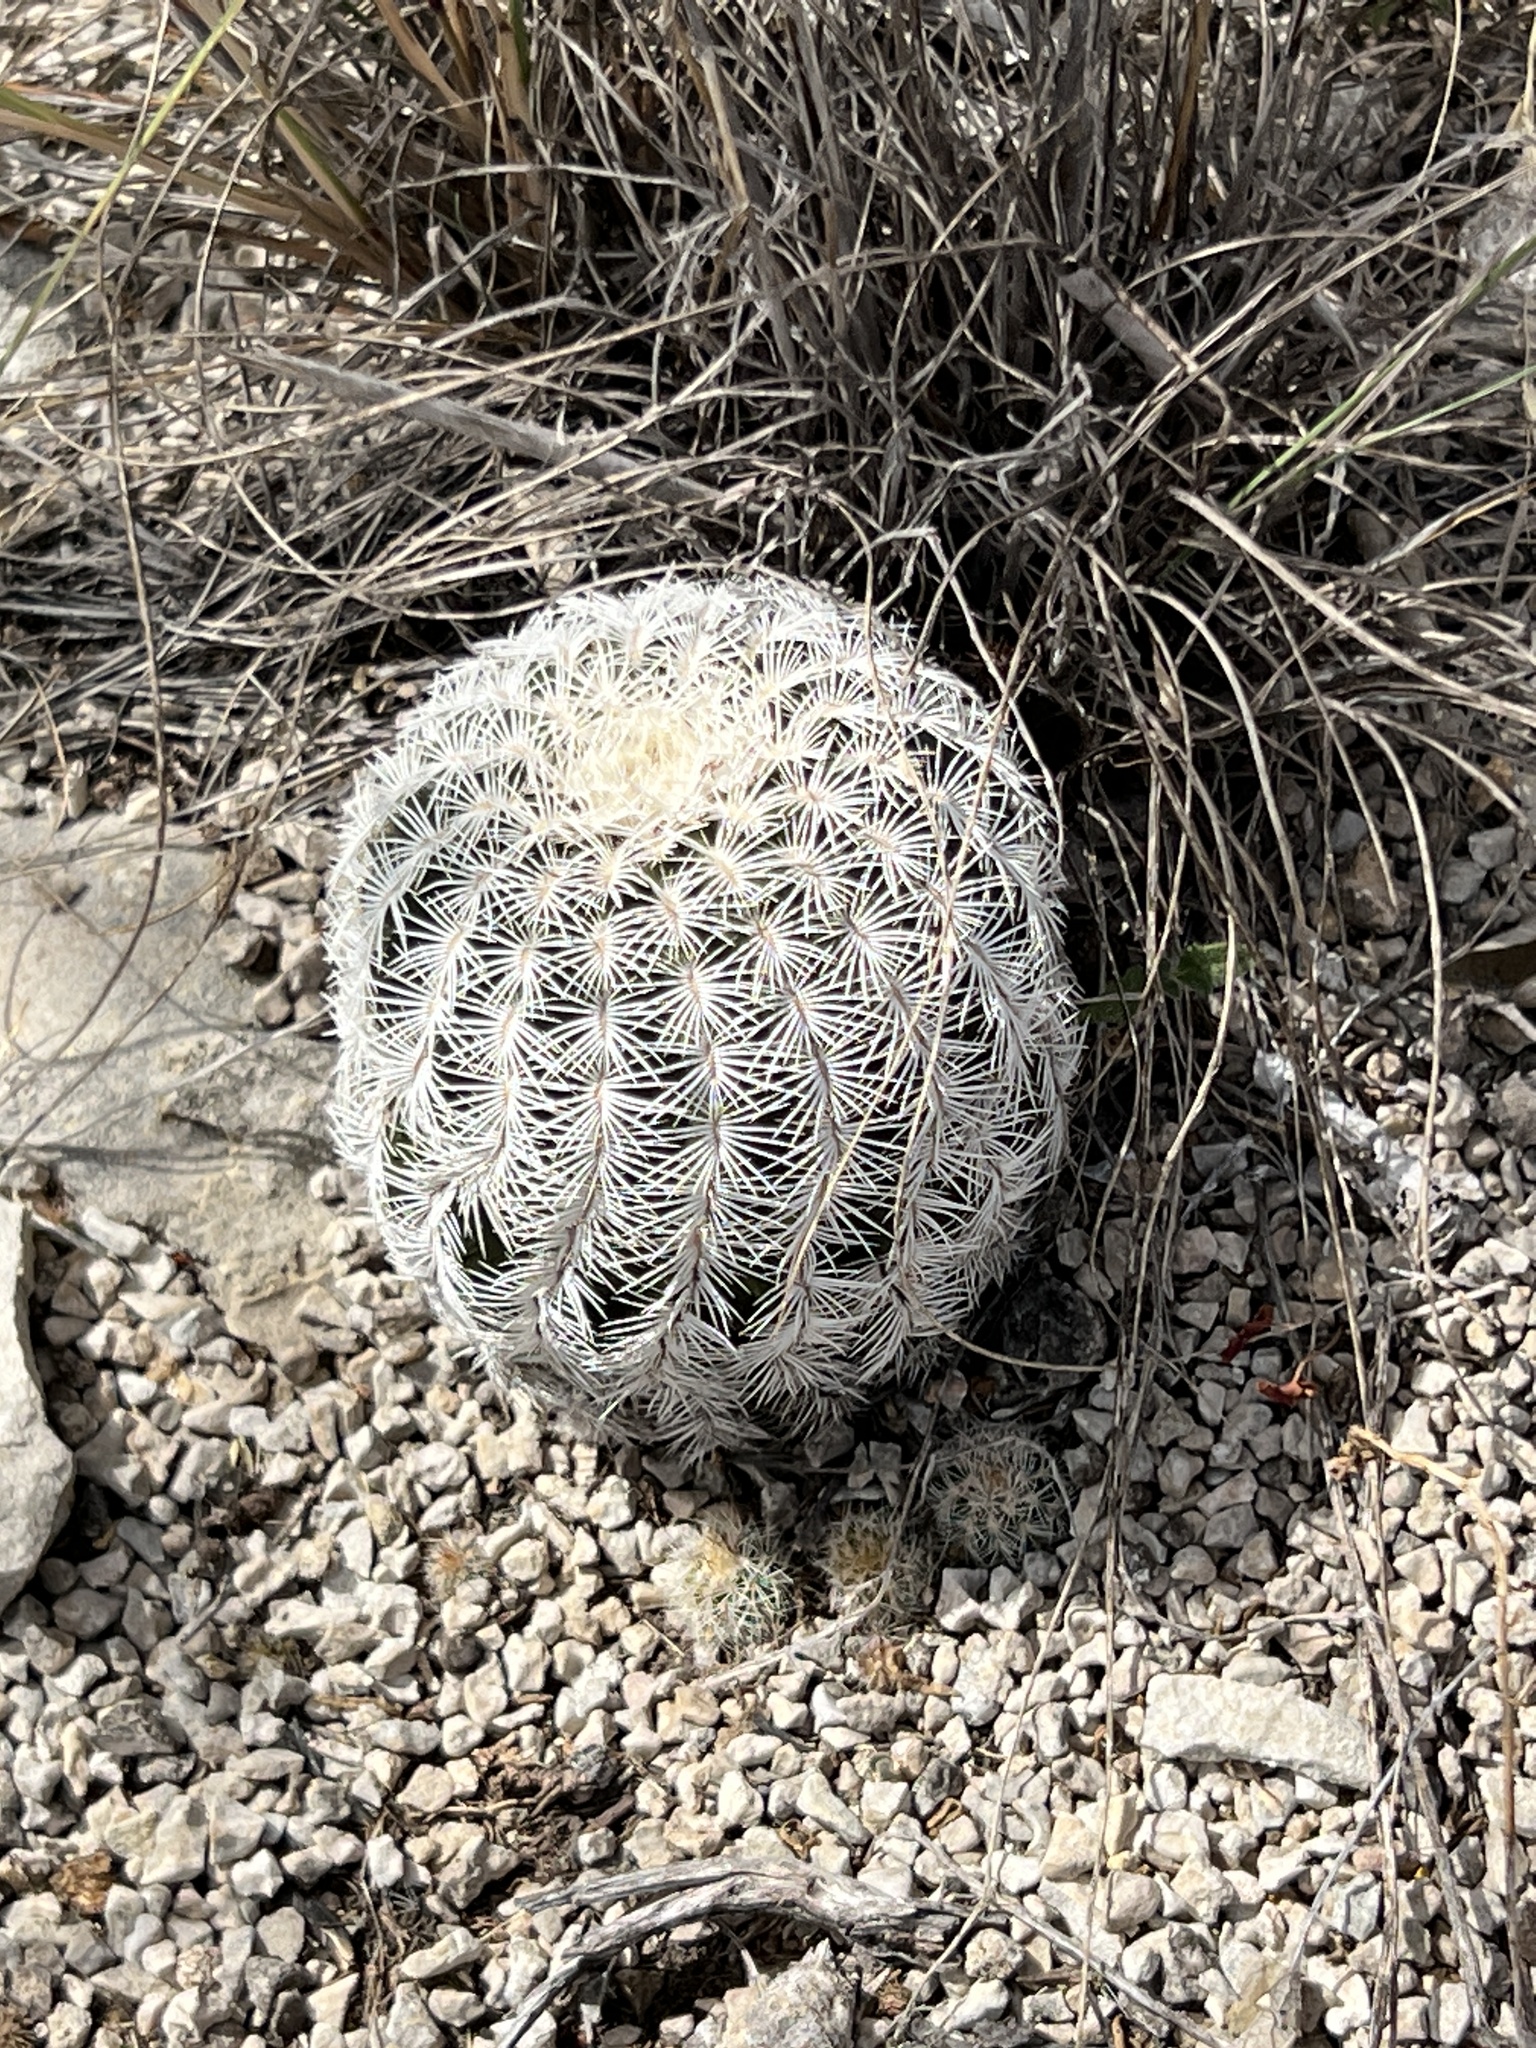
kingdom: Plantae
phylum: Tracheophyta
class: Magnoliopsida
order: Caryophyllales
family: Cactaceae
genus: Echinocereus
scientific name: Echinocereus reichenbachii
